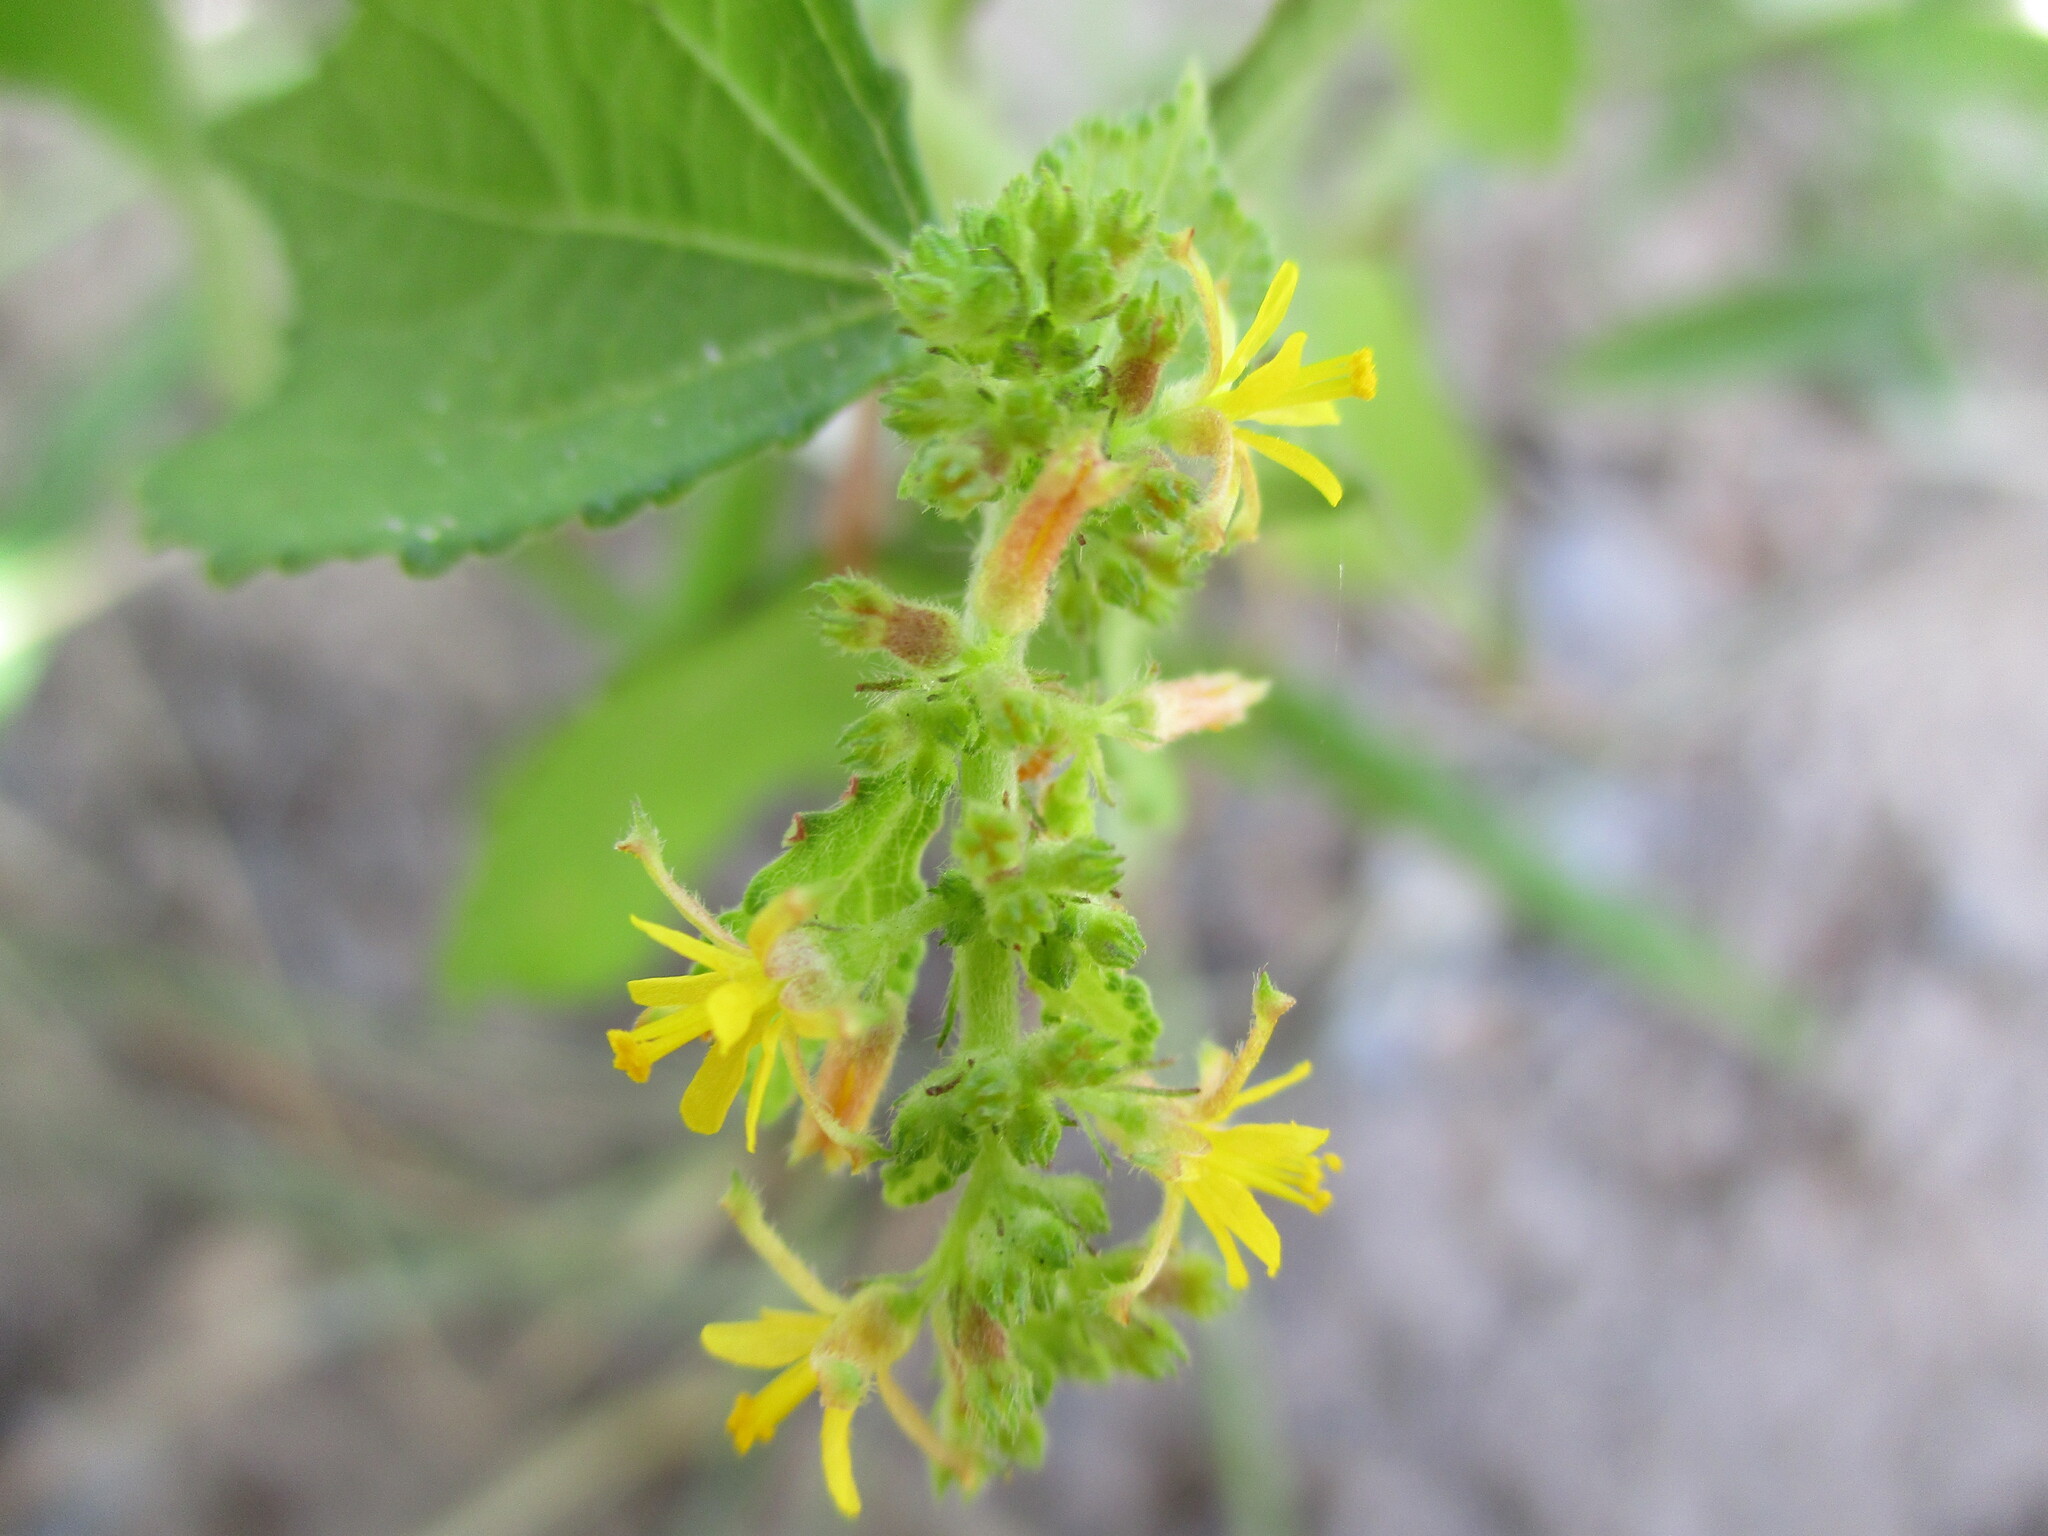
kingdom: Plantae
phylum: Tracheophyta
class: Magnoliopsida
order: Malvales
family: Malvaceae
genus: Triumfetta
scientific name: Triumfetta pentandra
